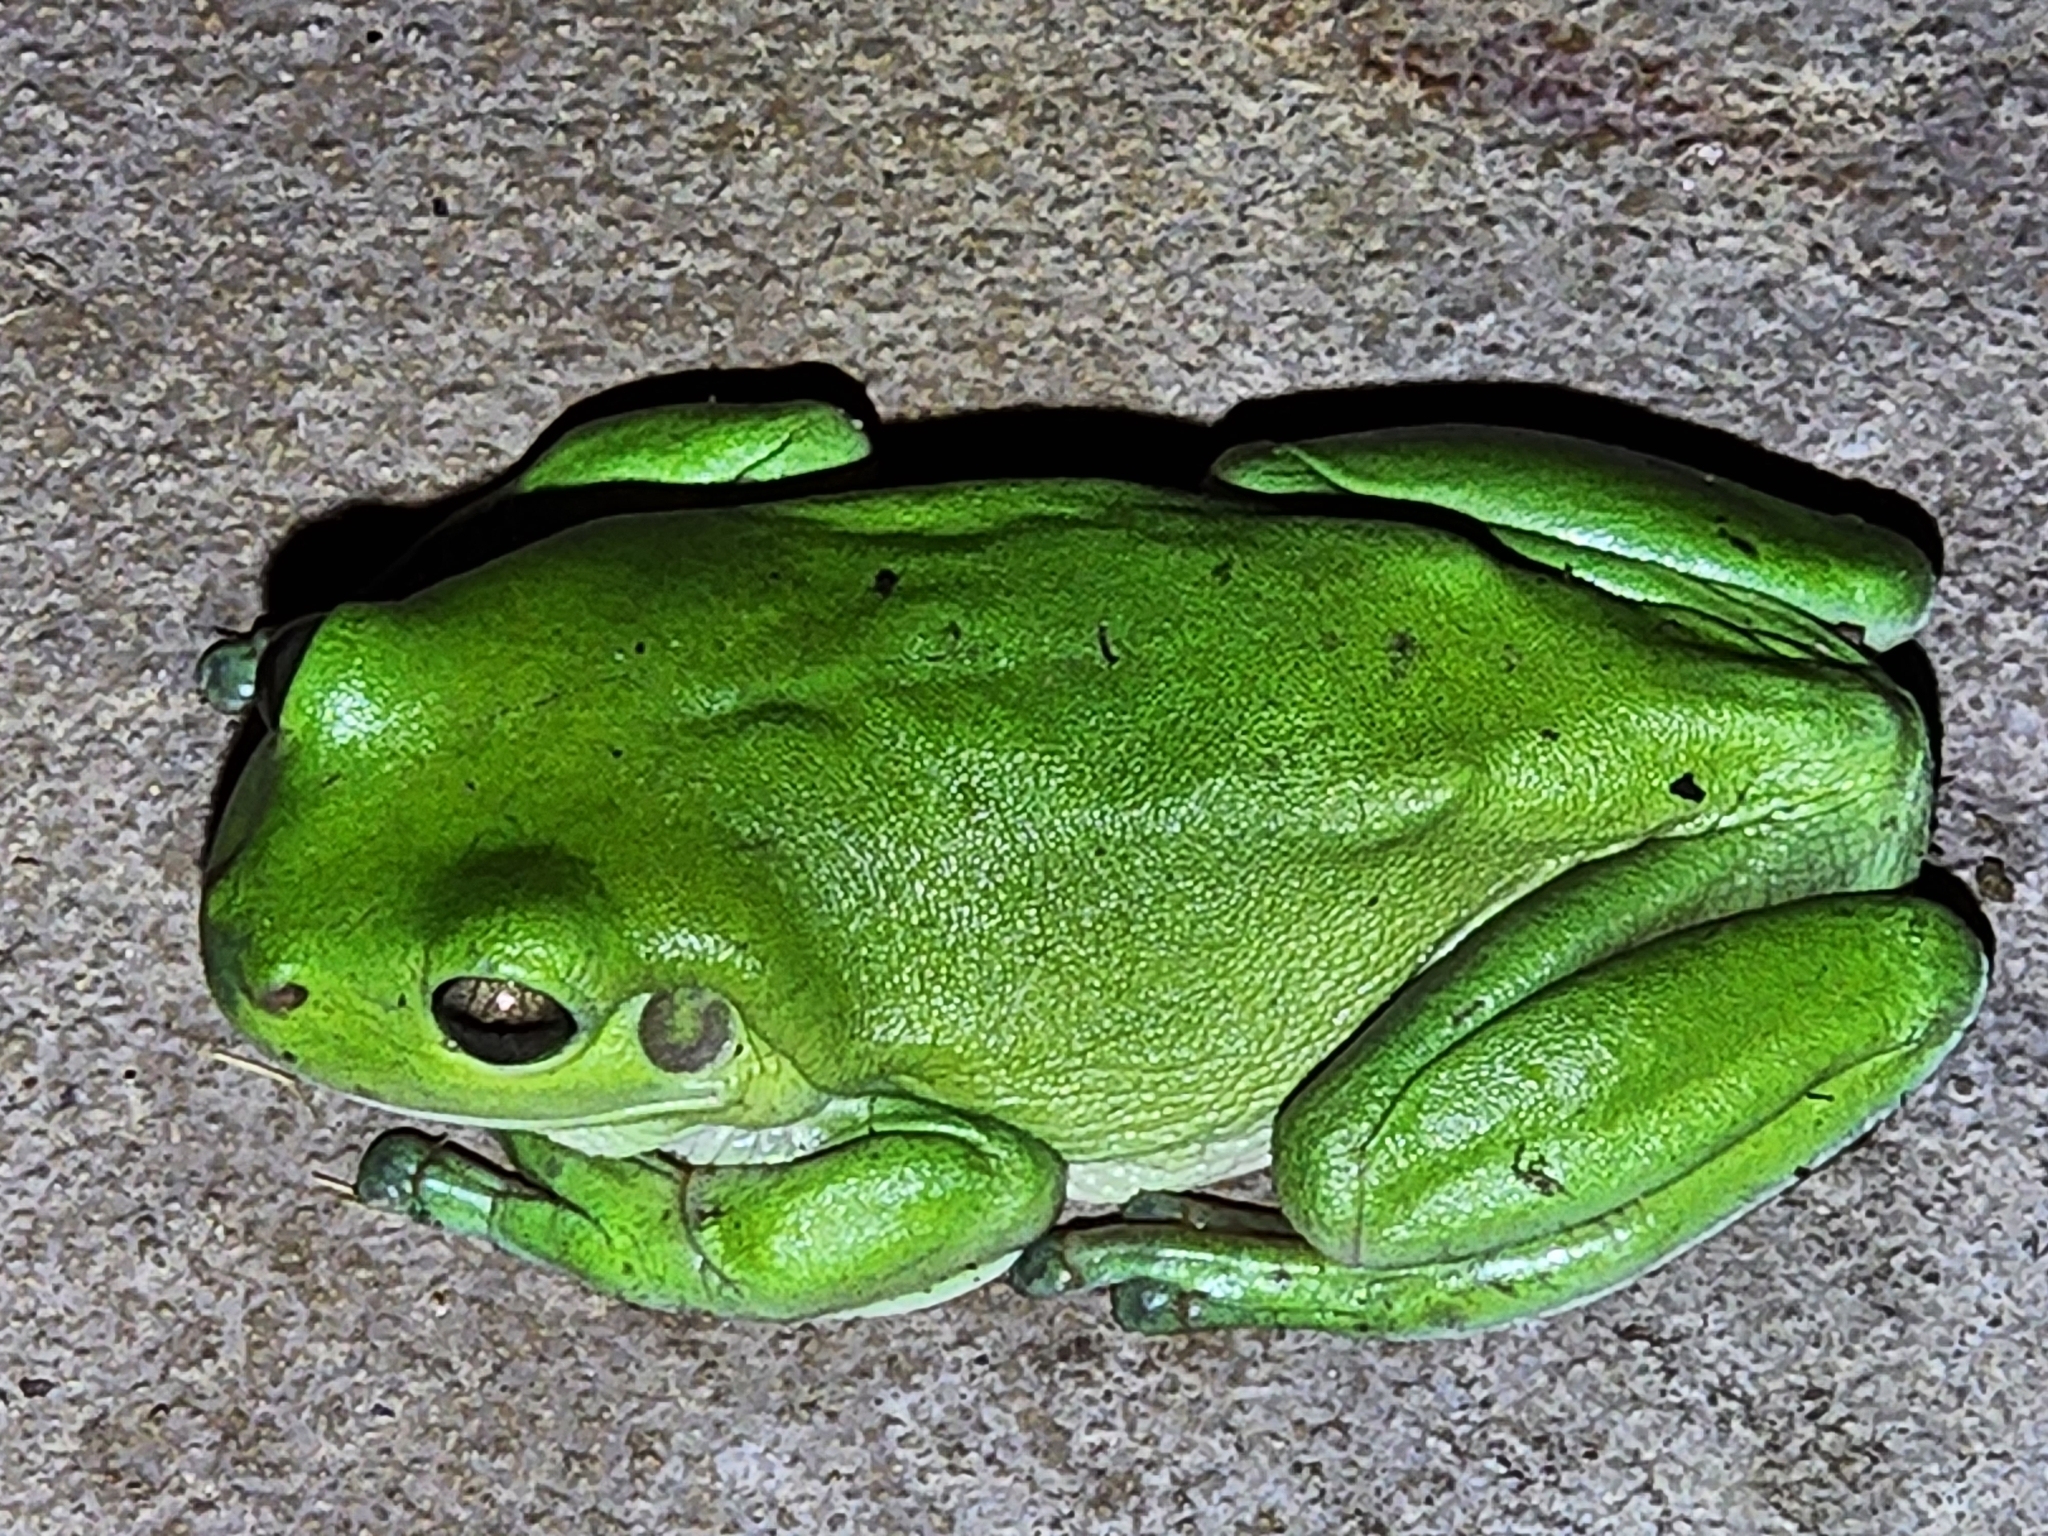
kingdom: Animalia
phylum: Chordata
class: Amphibia
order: Anura
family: Pelodryadidae
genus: Ranoidea
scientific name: Ranoidea caerulea
